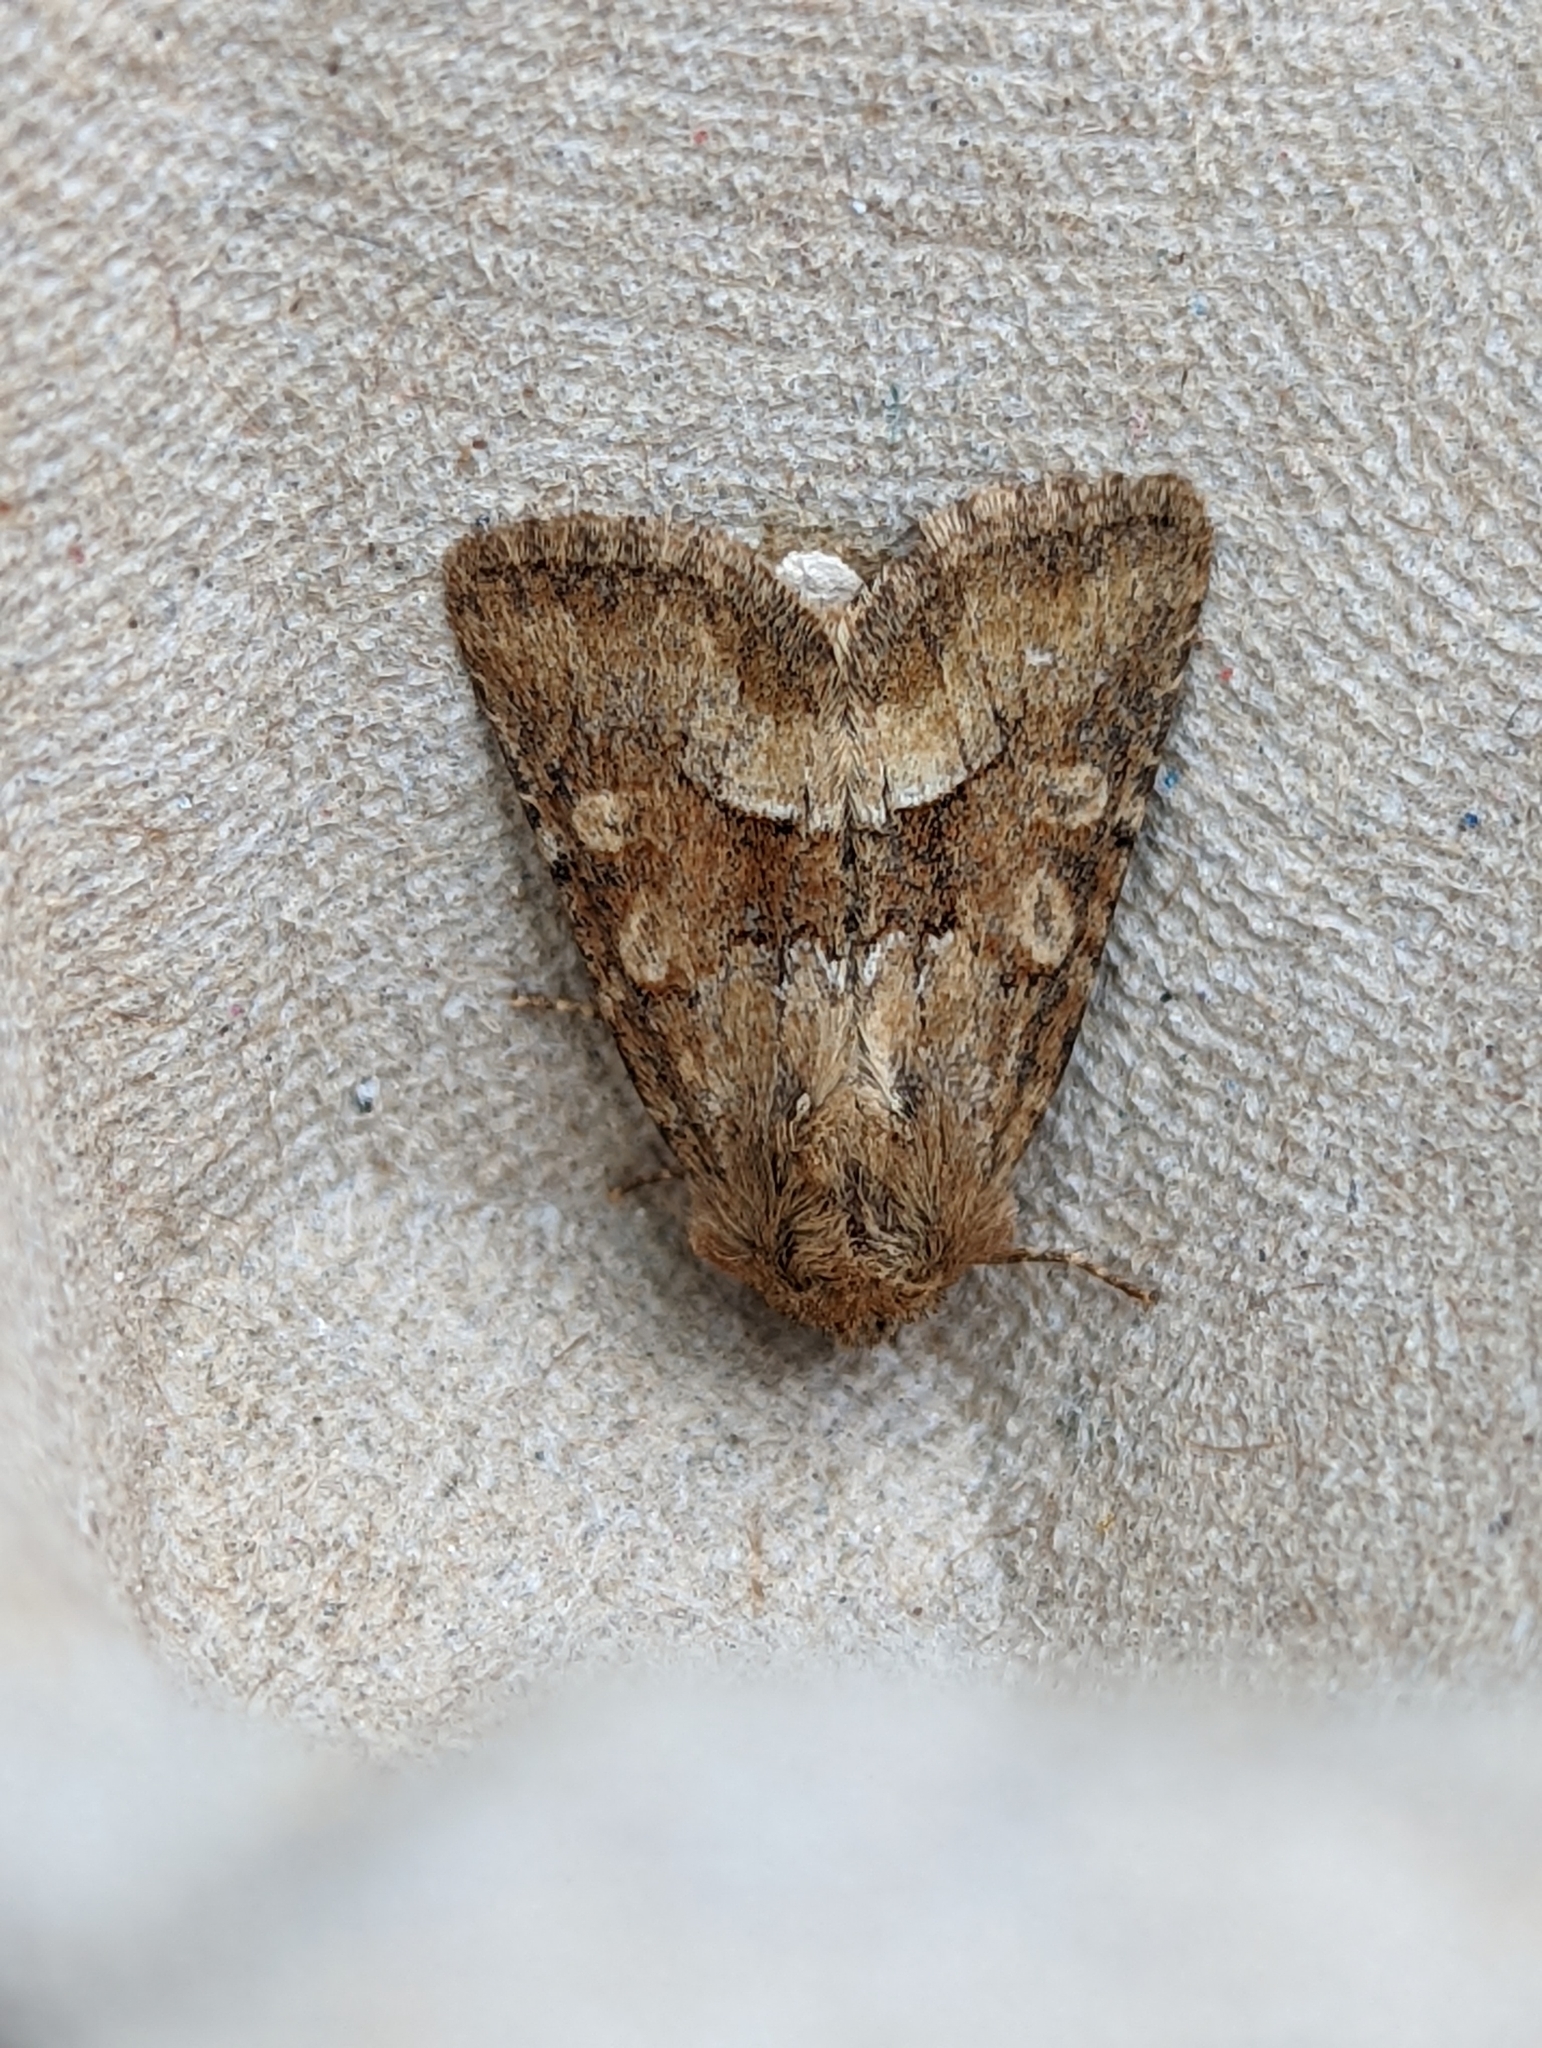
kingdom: Animalia
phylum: Arthropoda
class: Insecta
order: Lepidoptera
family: Noctuidae
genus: Oligia
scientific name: Oligia fasciuncula
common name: Middle-barred minor
